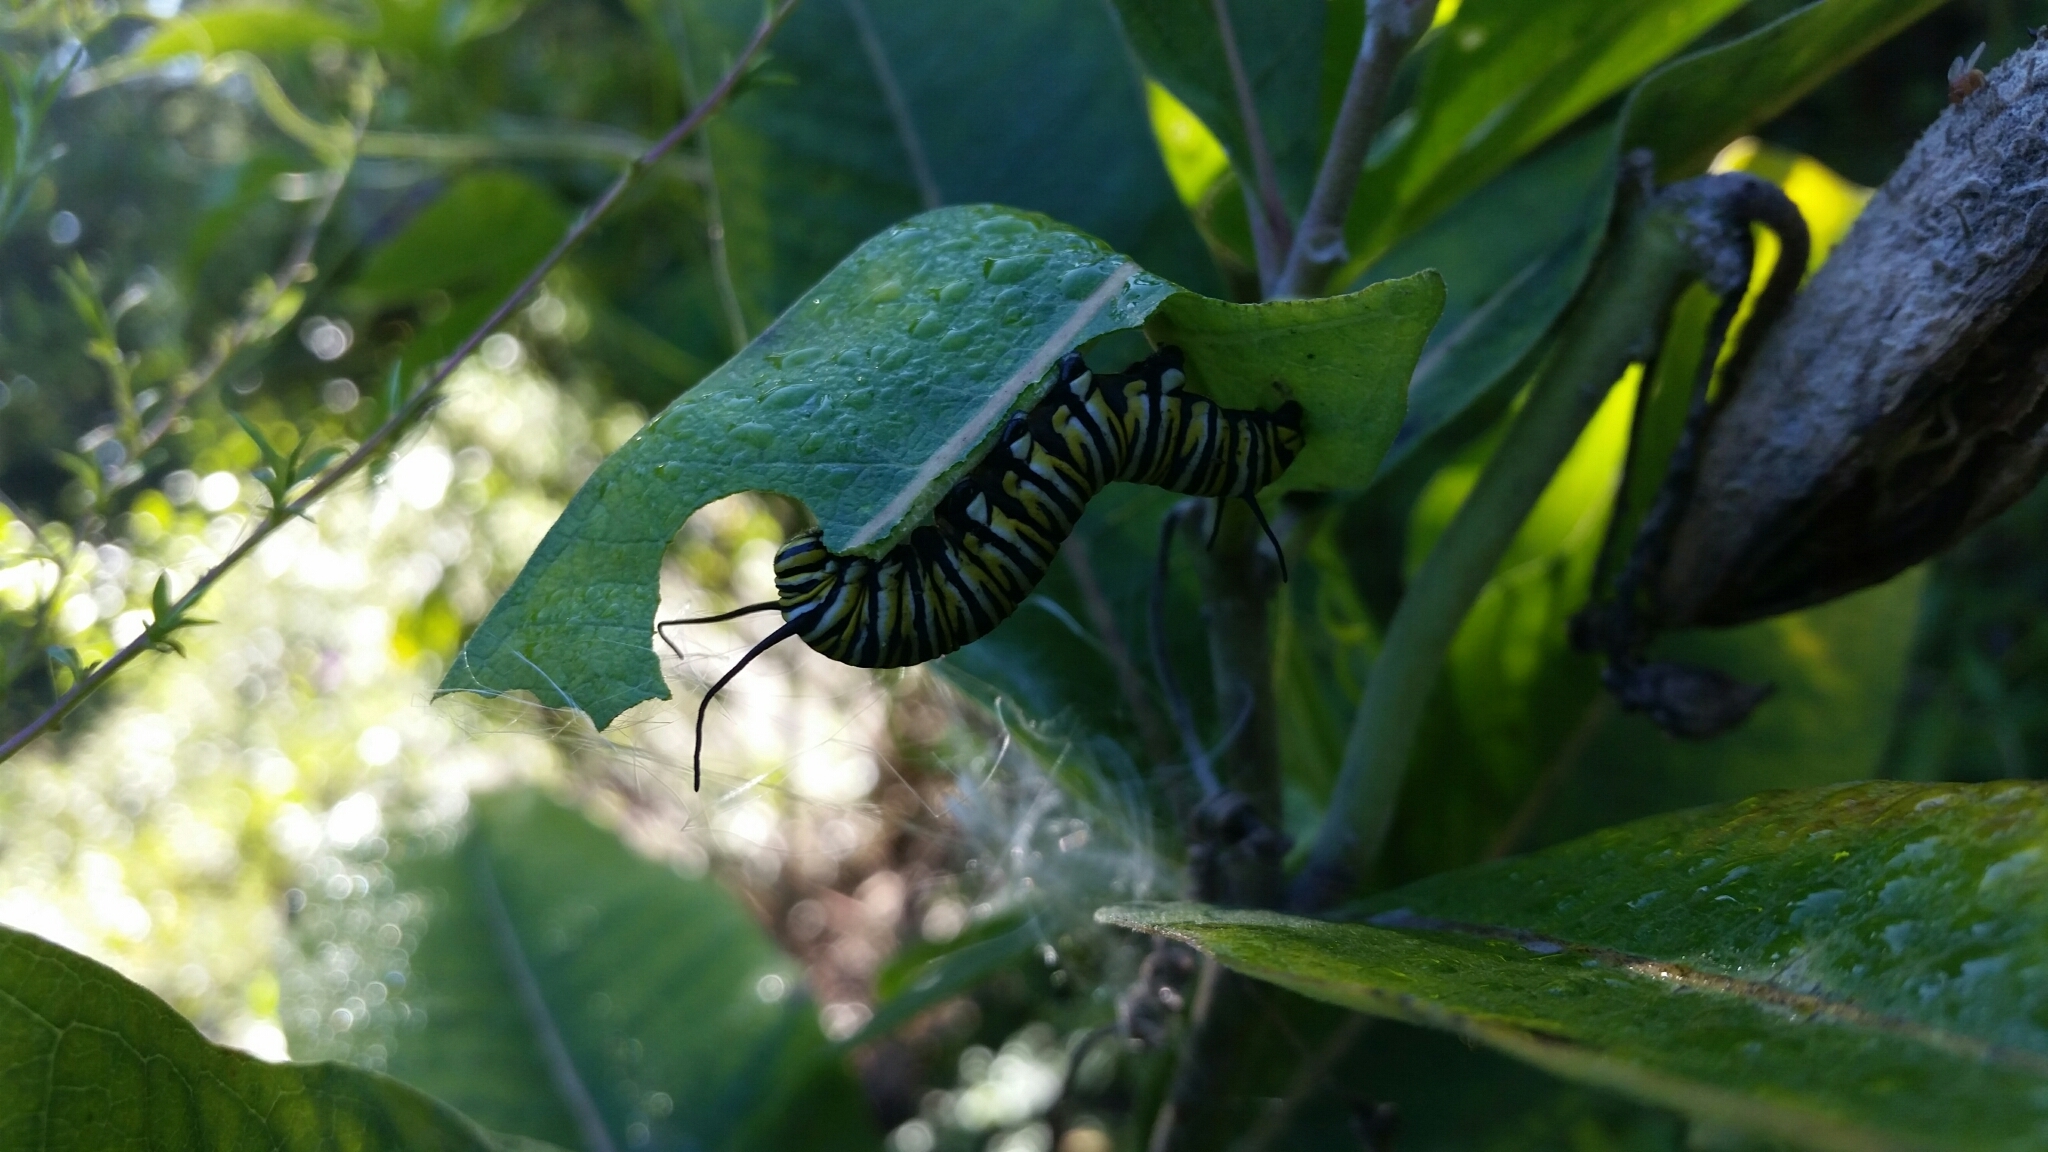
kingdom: Animalia
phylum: Arthropoda
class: Insecta
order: Lepidoptera
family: Nymphalidae
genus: Danaus
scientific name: Danaus plexippus
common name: Monarch
